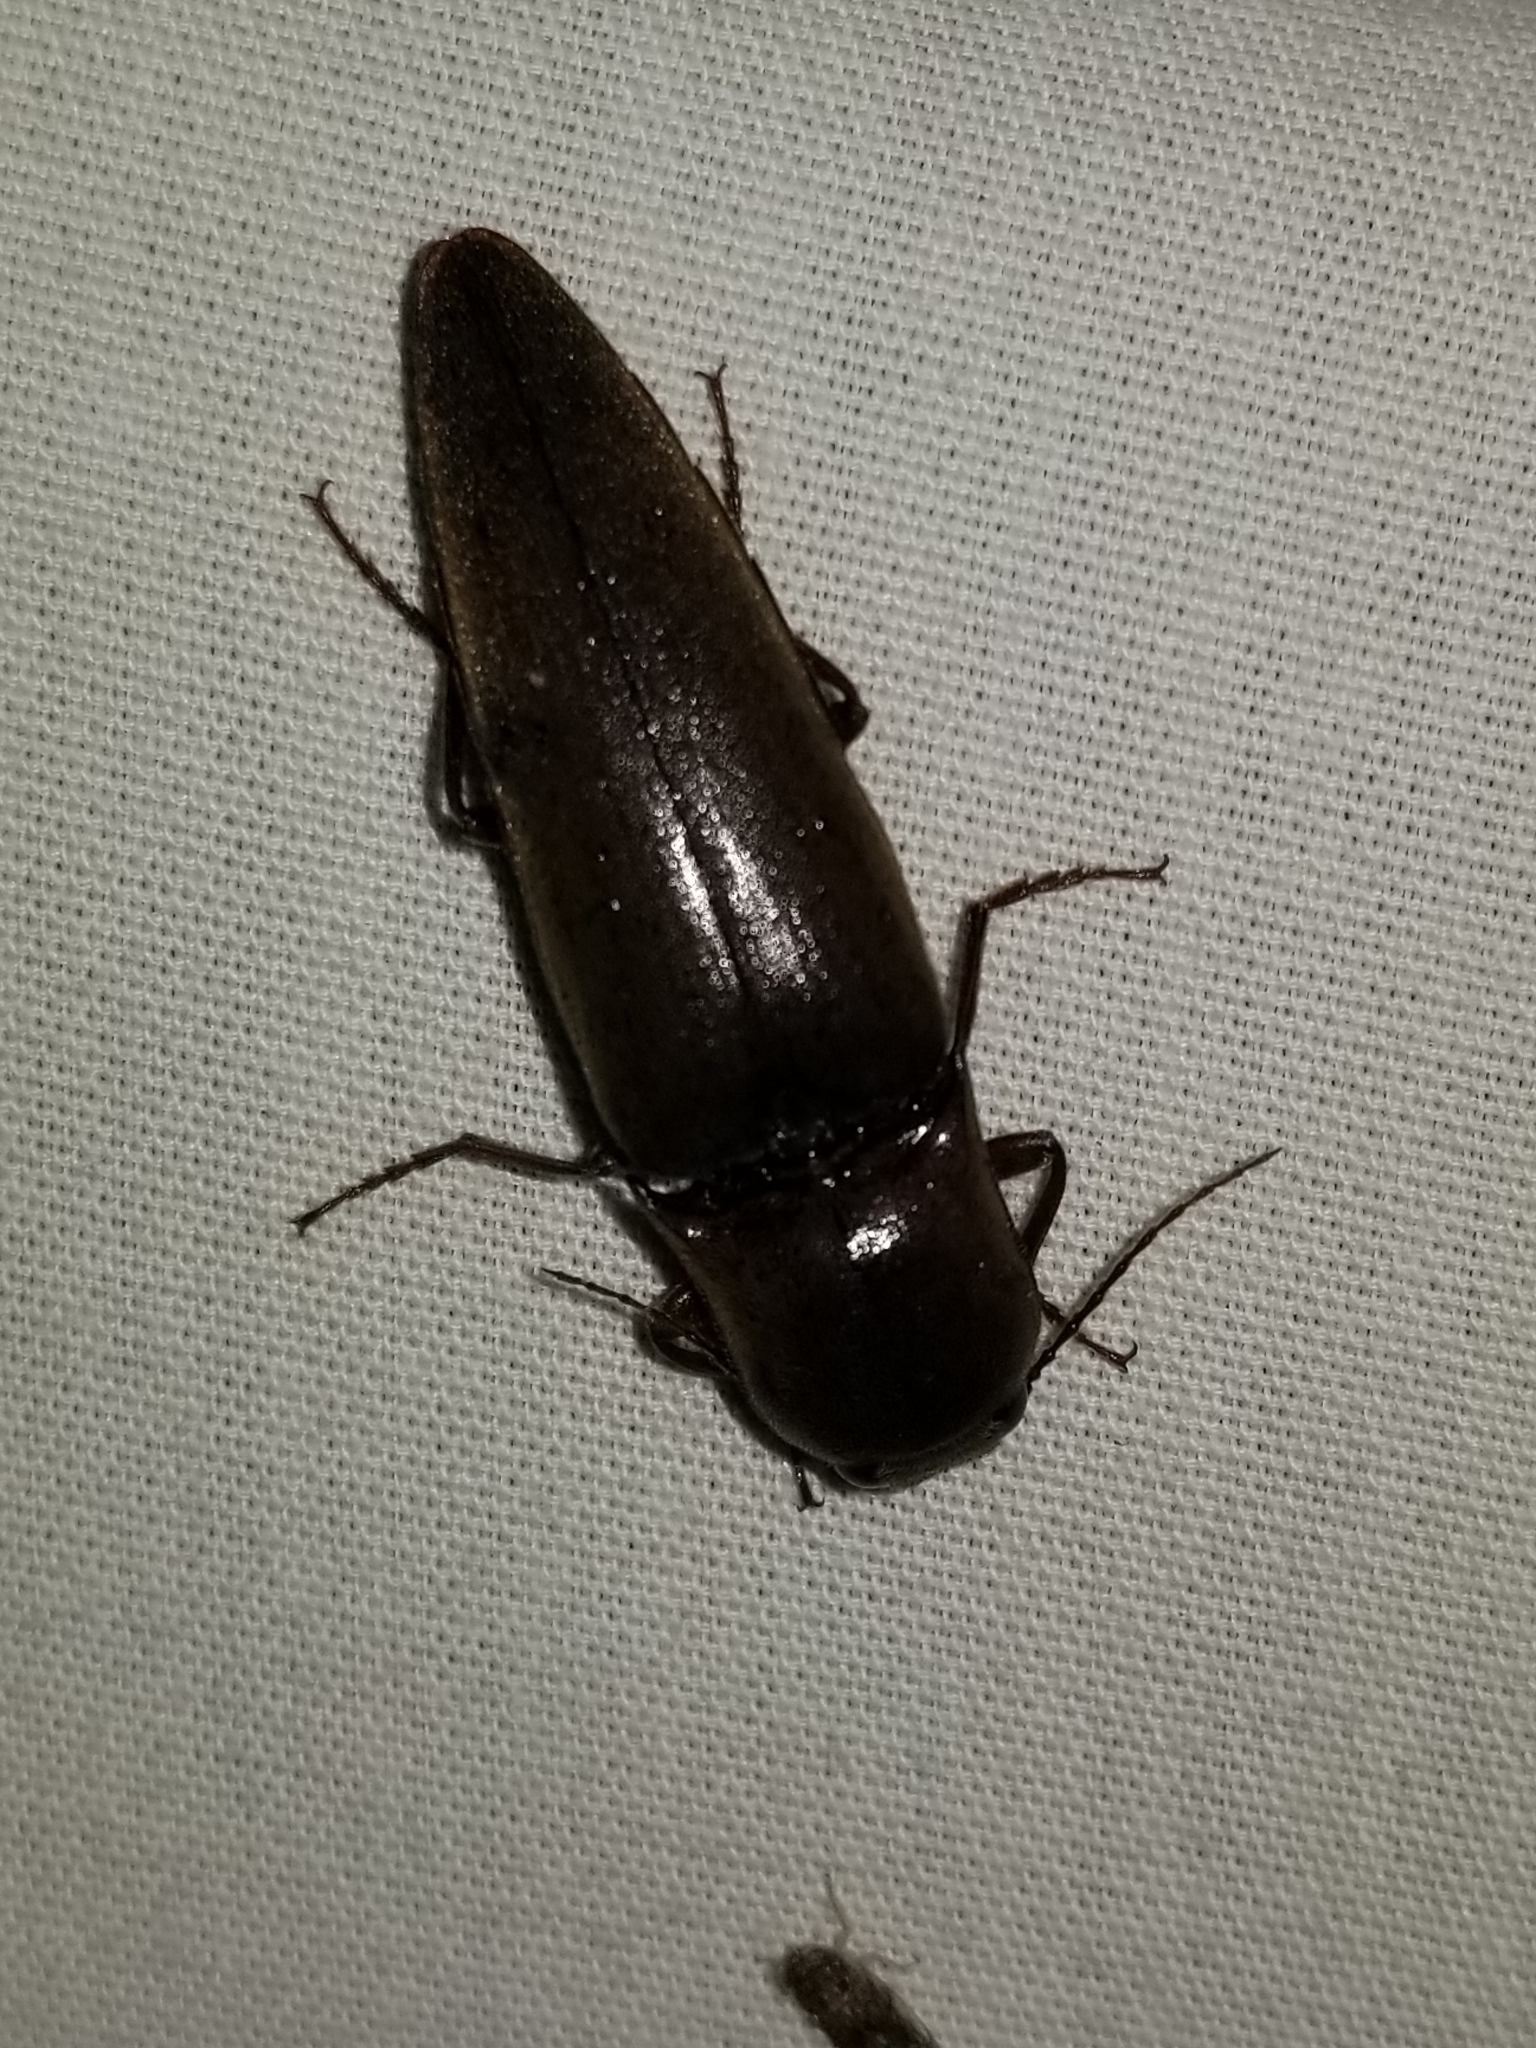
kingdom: Animalia
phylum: Arthropoda
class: Insecta
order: Coleoptera
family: Elateridae
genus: Orthostethus
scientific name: Orthostethus infuscatus
